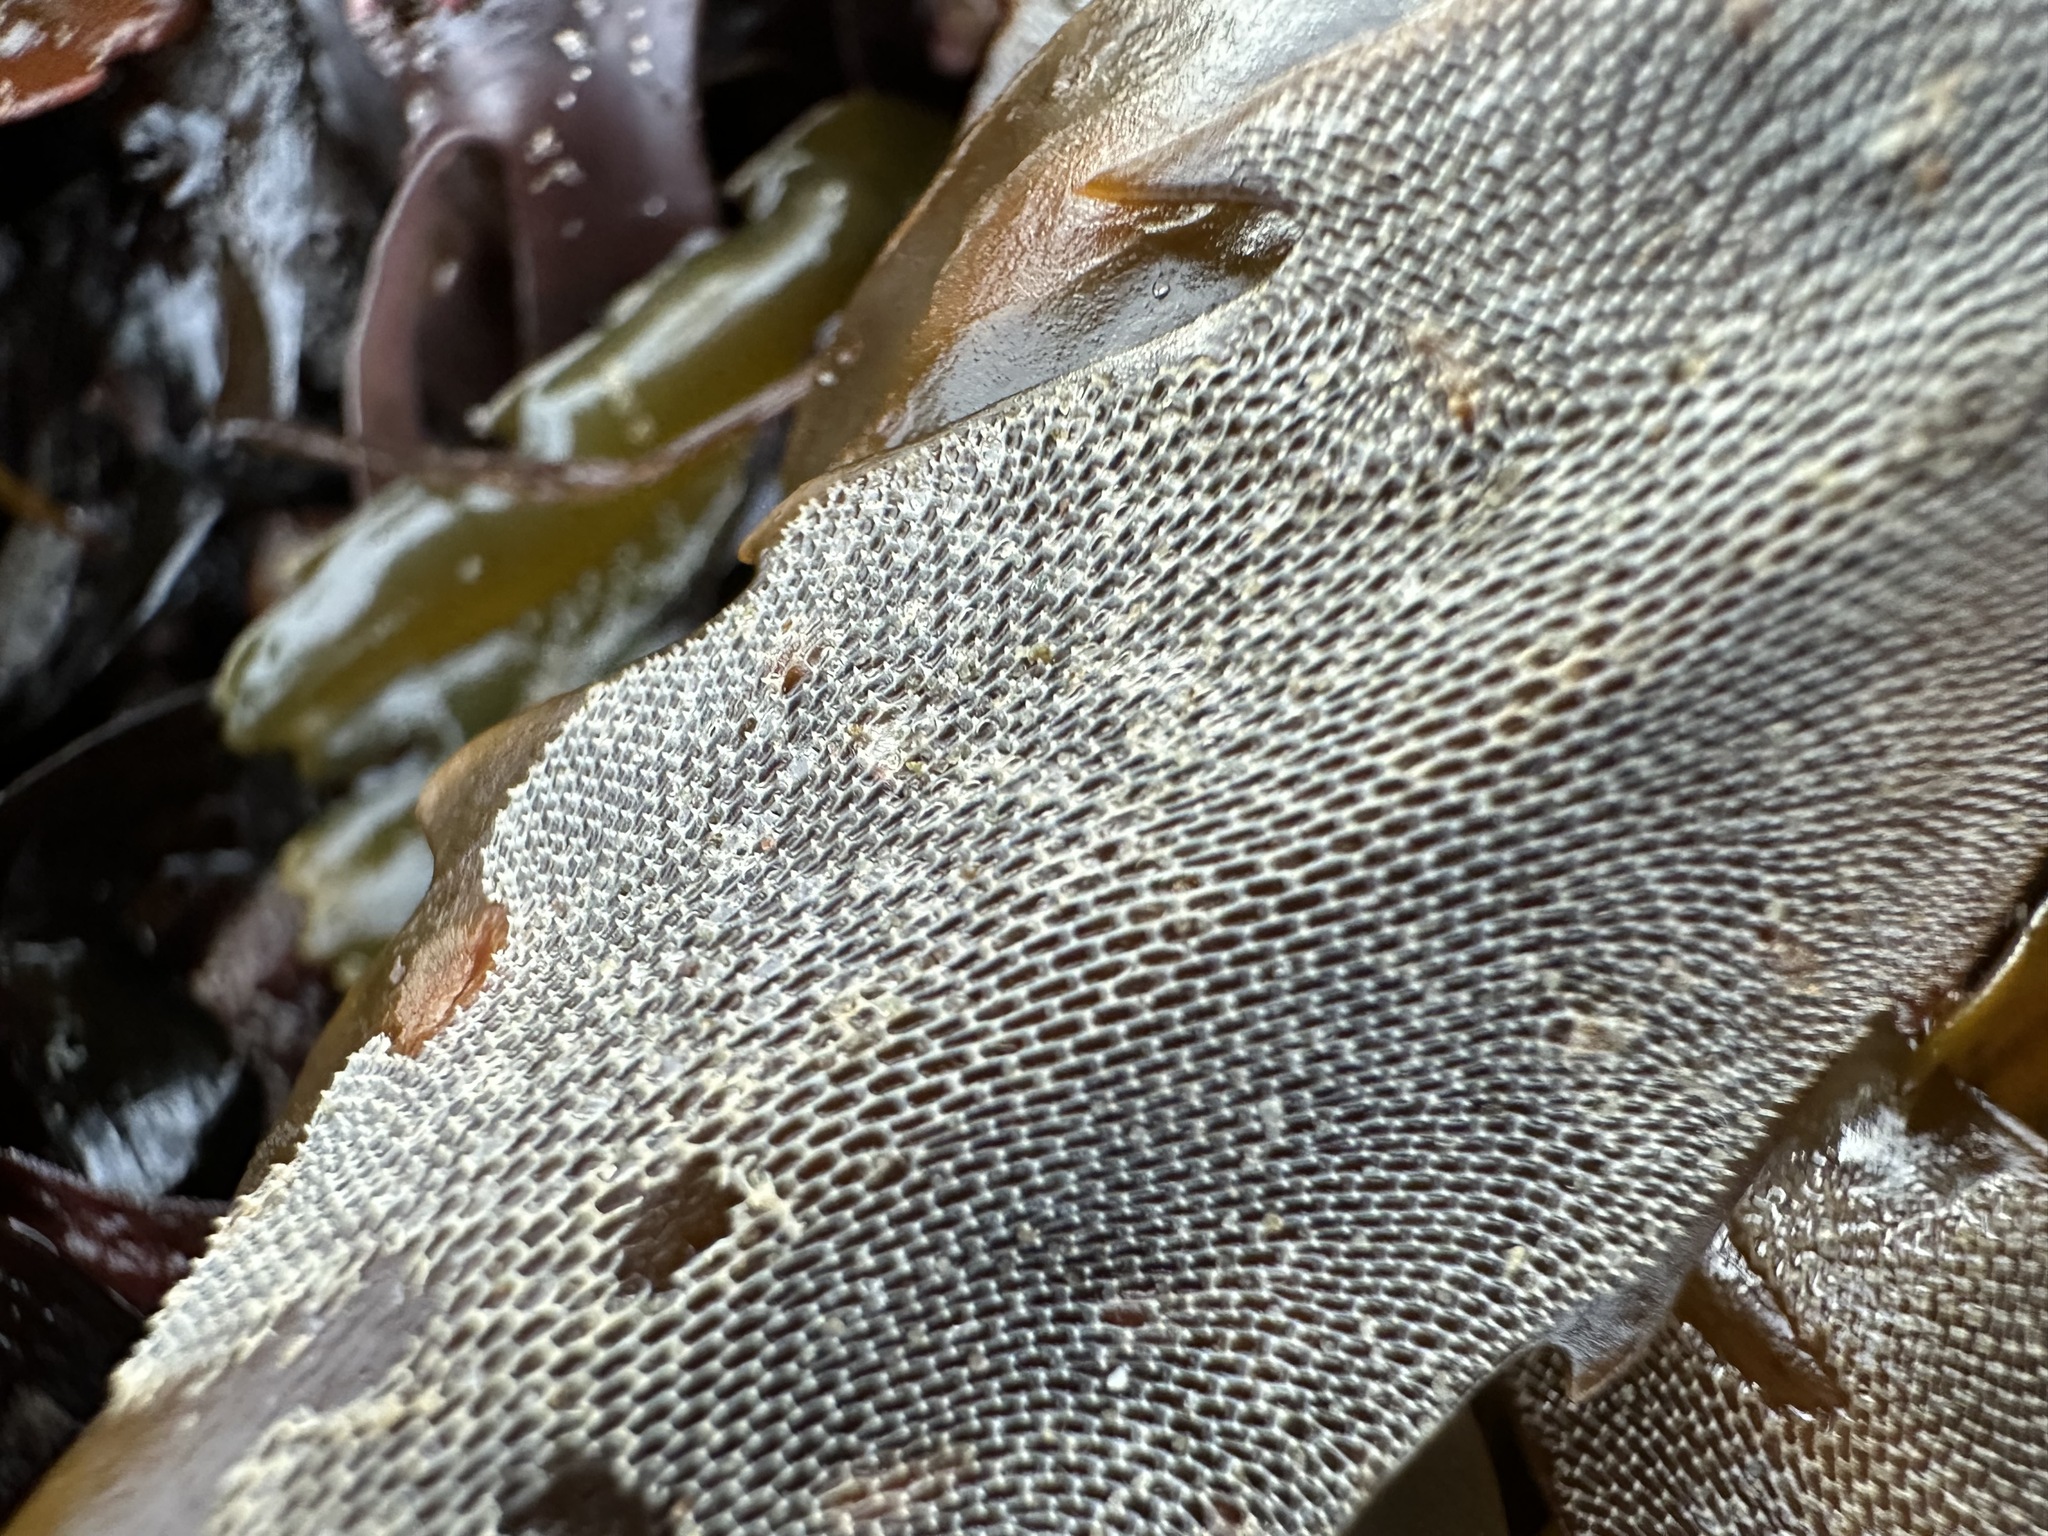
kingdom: Animalia
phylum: Bryozoa
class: Gymnolaemata
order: Cheilostomatida
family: Membraniporidae
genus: Membranipora
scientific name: Membranipora membranacea
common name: Sea mat
